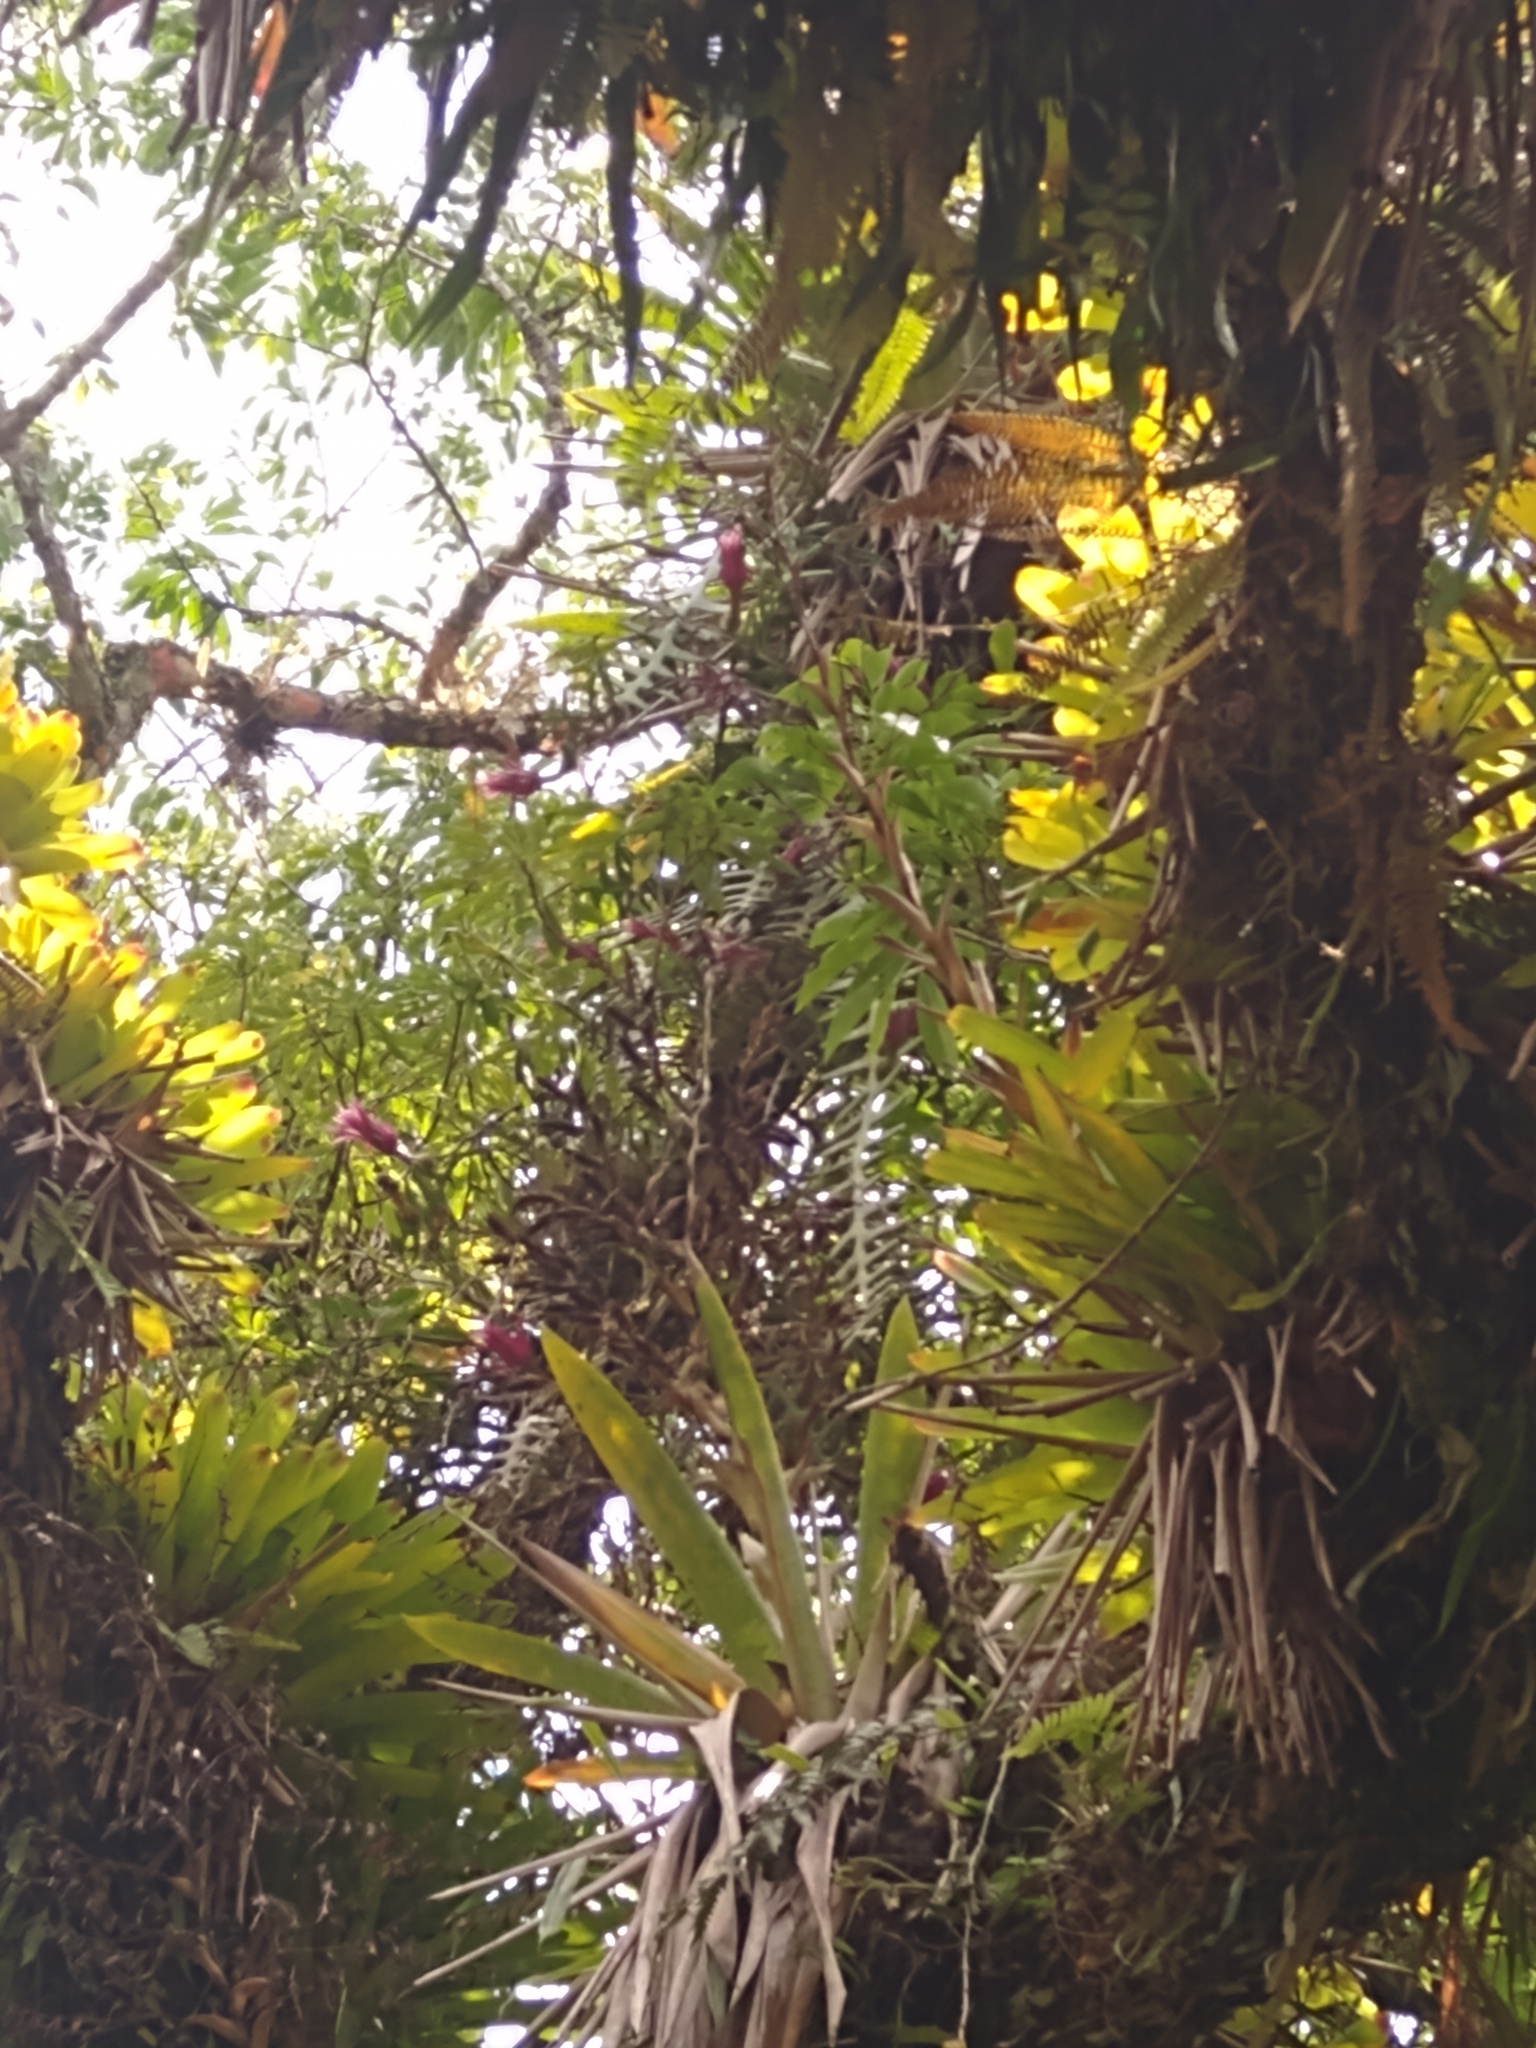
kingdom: Plantae
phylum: Tracheophyta
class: Magnoliopsida
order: Caryophyllales
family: Cactaceae
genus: Selenicereus
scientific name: Selenicereus anthonyanus
